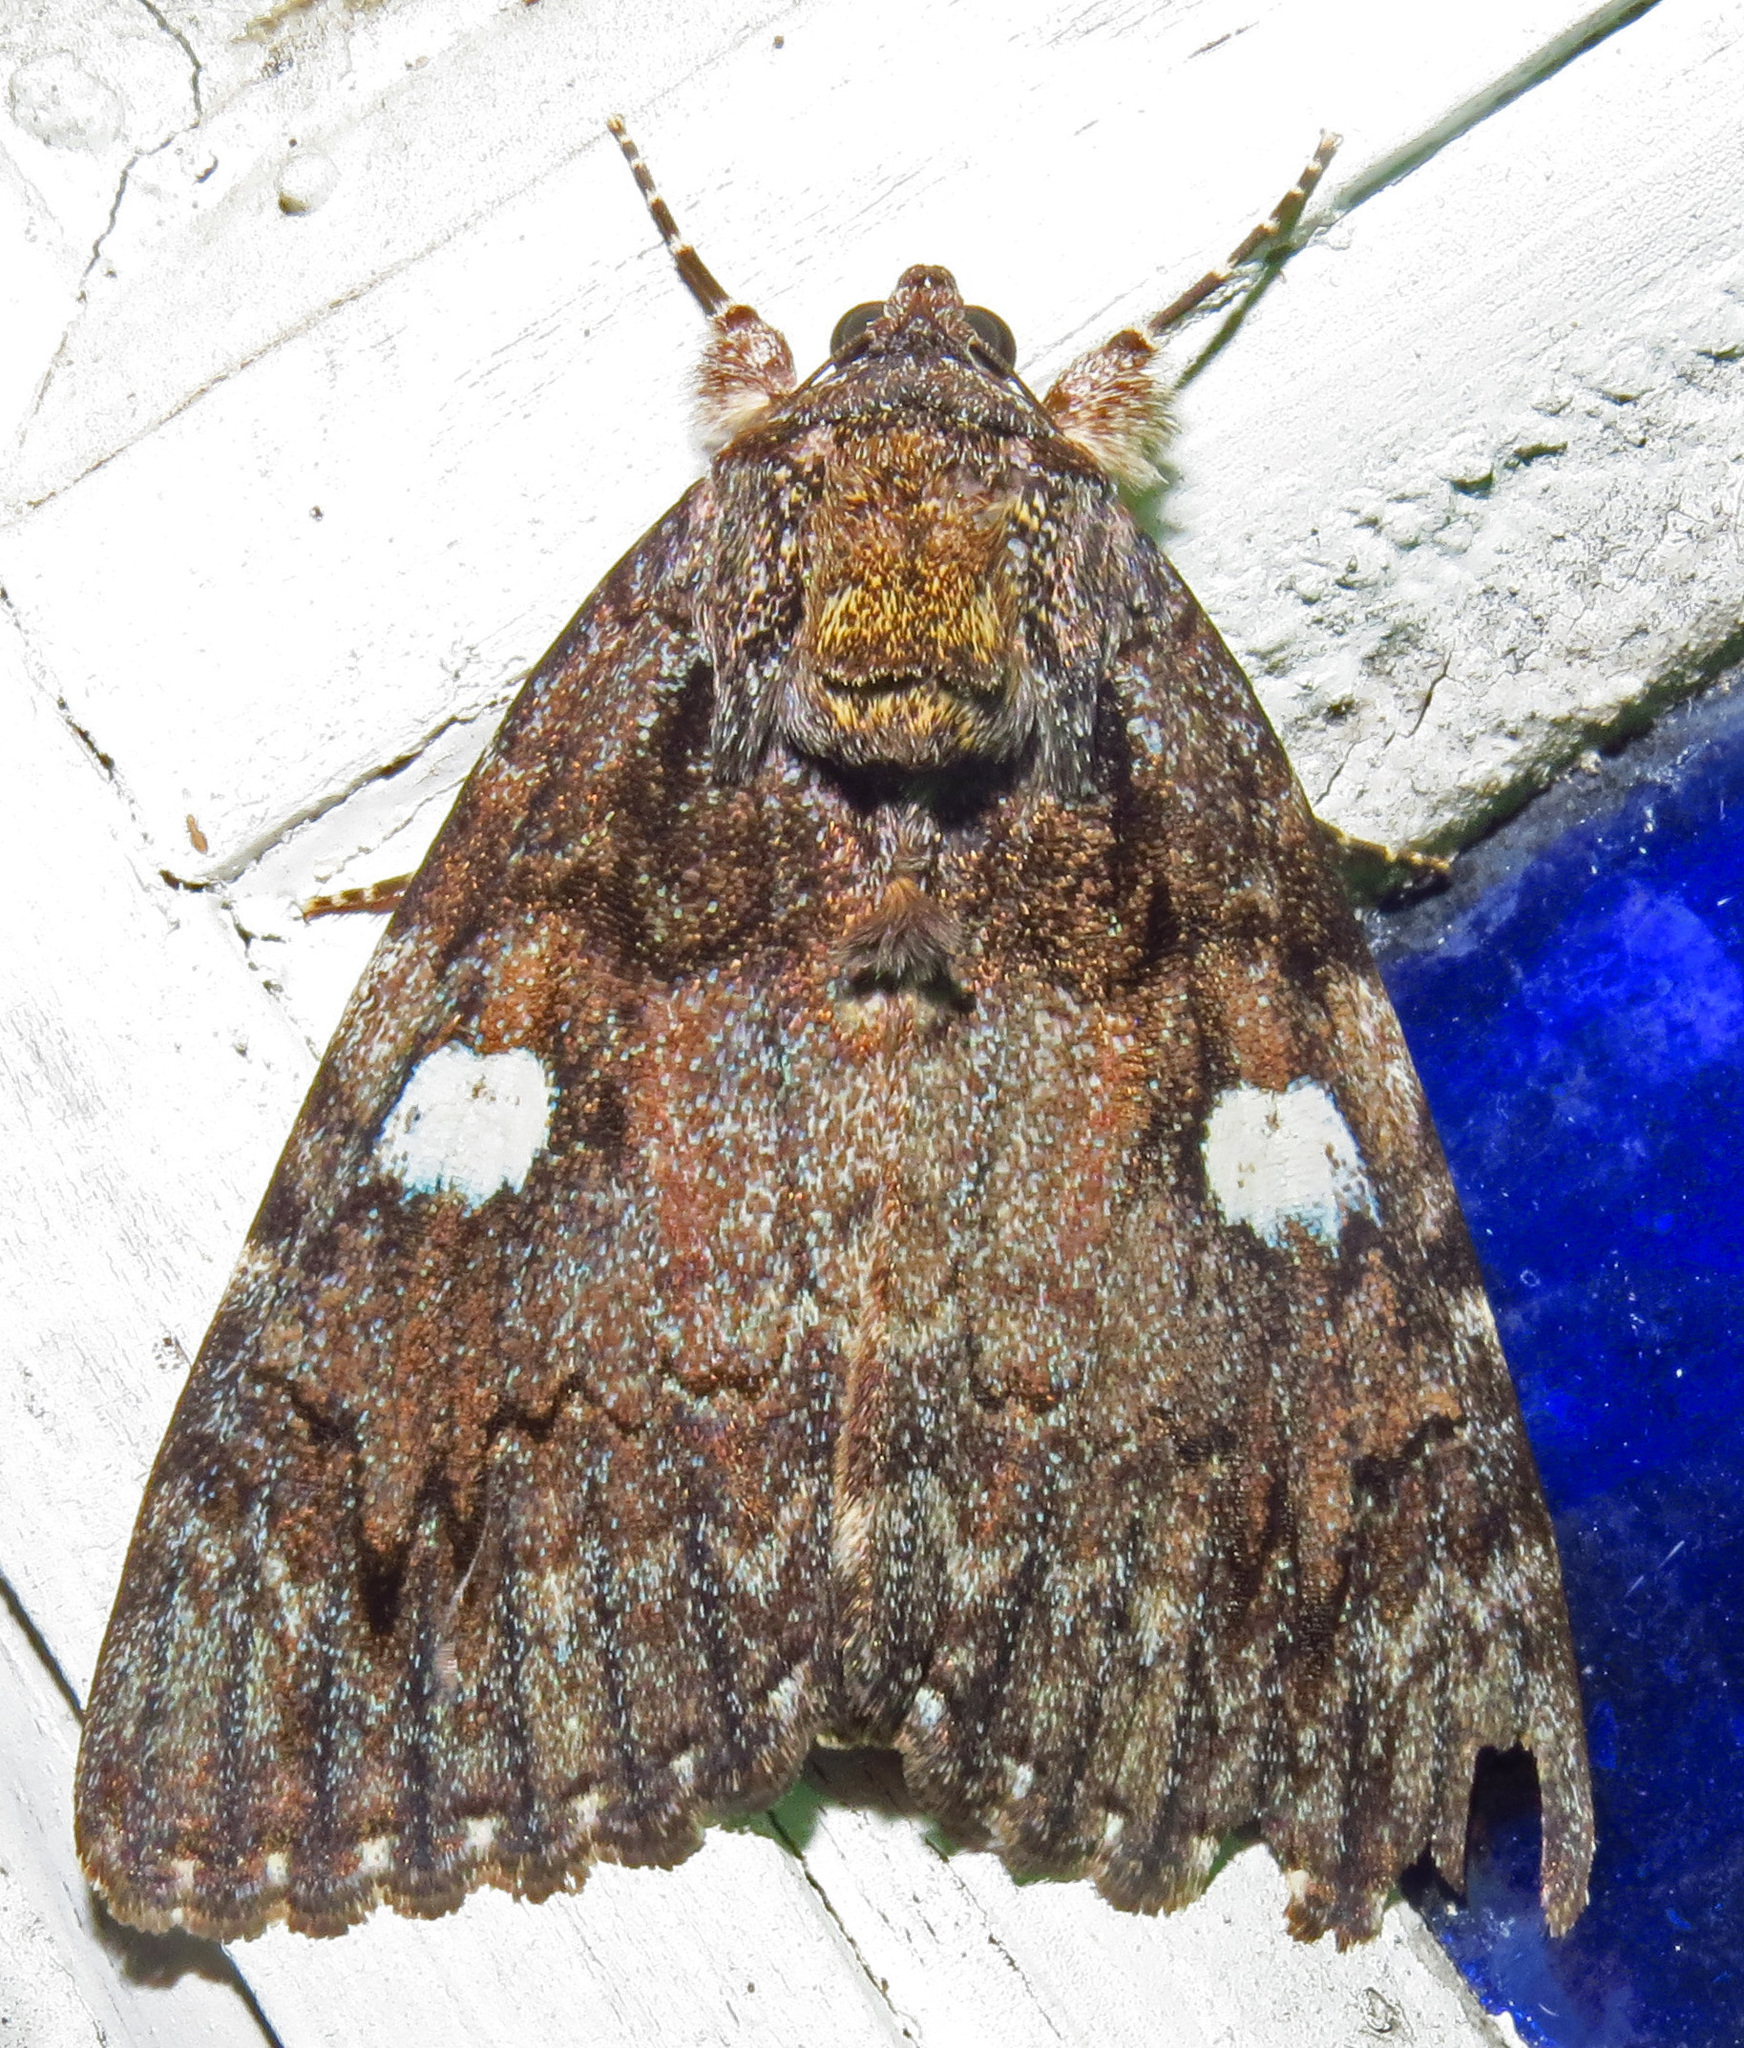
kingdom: Animalia
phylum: Arthropoda
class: Insecta
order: Lepidoptera
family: Erebidae
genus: Catocala
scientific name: Catocala ilia
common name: Ilia underwing
